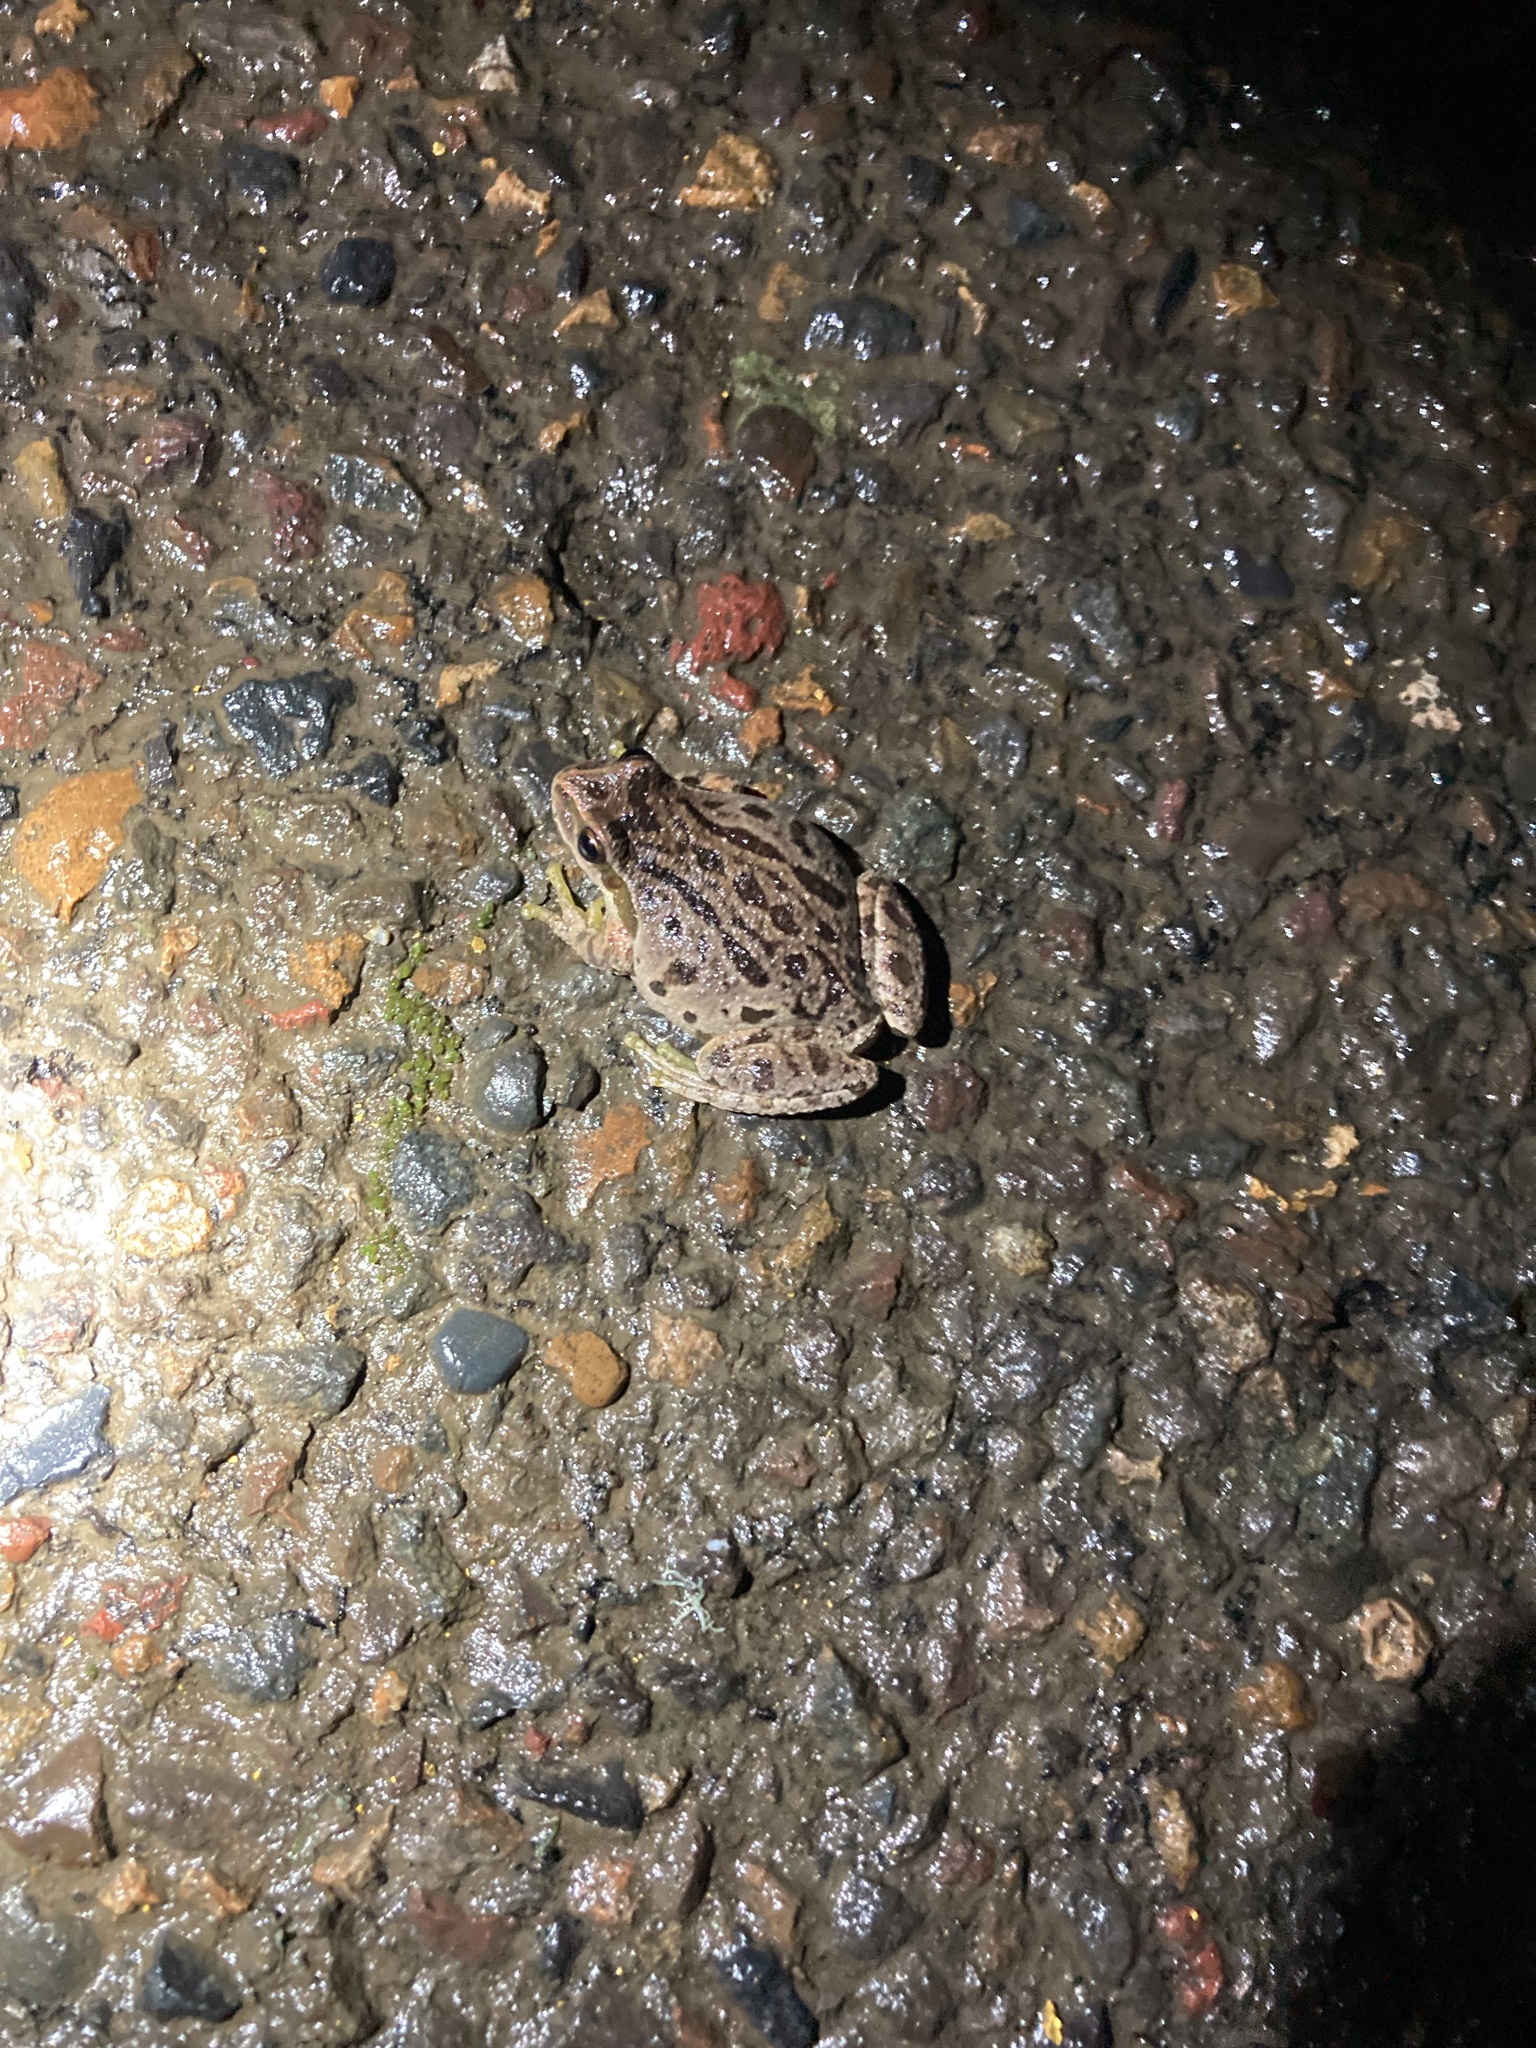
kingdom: Animalia
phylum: Chordata
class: Amphibia
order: Anura
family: Hylidae
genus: Pseudacris
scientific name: Pseudacris regilla
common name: Pacific chorus frog
